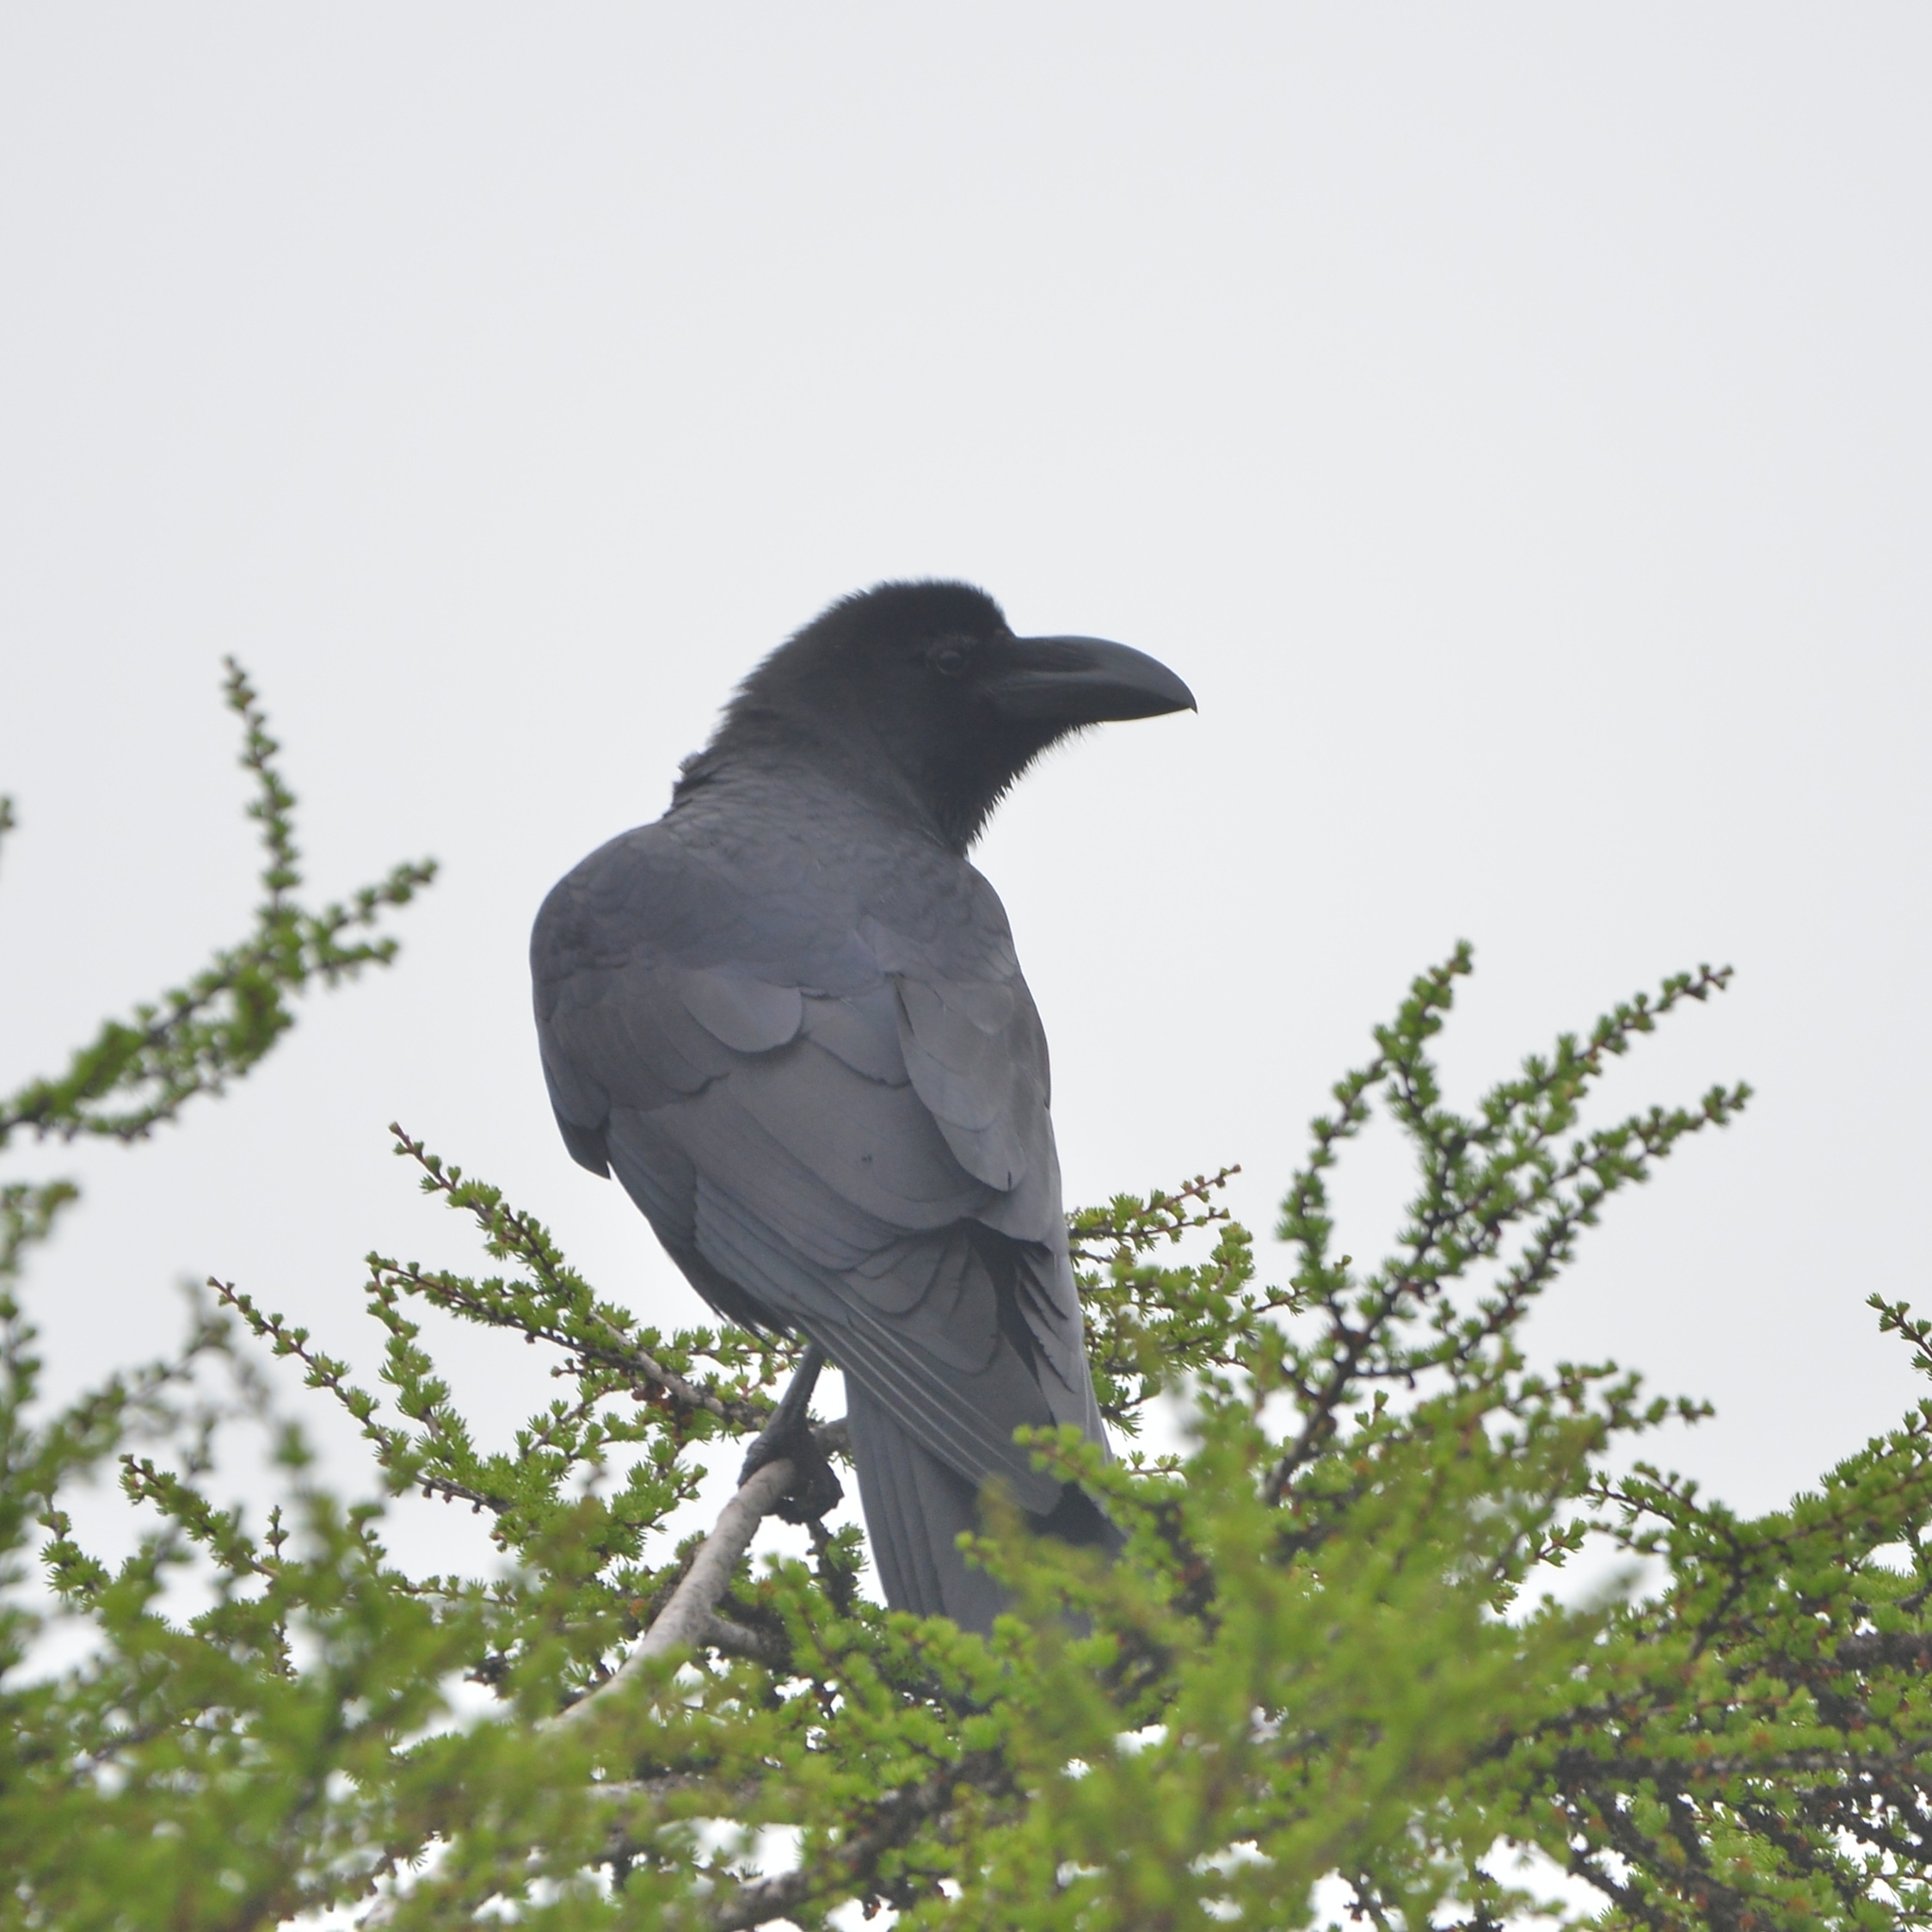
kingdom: Animalia
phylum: Chordata
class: Aves
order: Passeriformes
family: Corvidae
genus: Corvus
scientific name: Corvus macrorhynchos
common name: Large-billed crow
